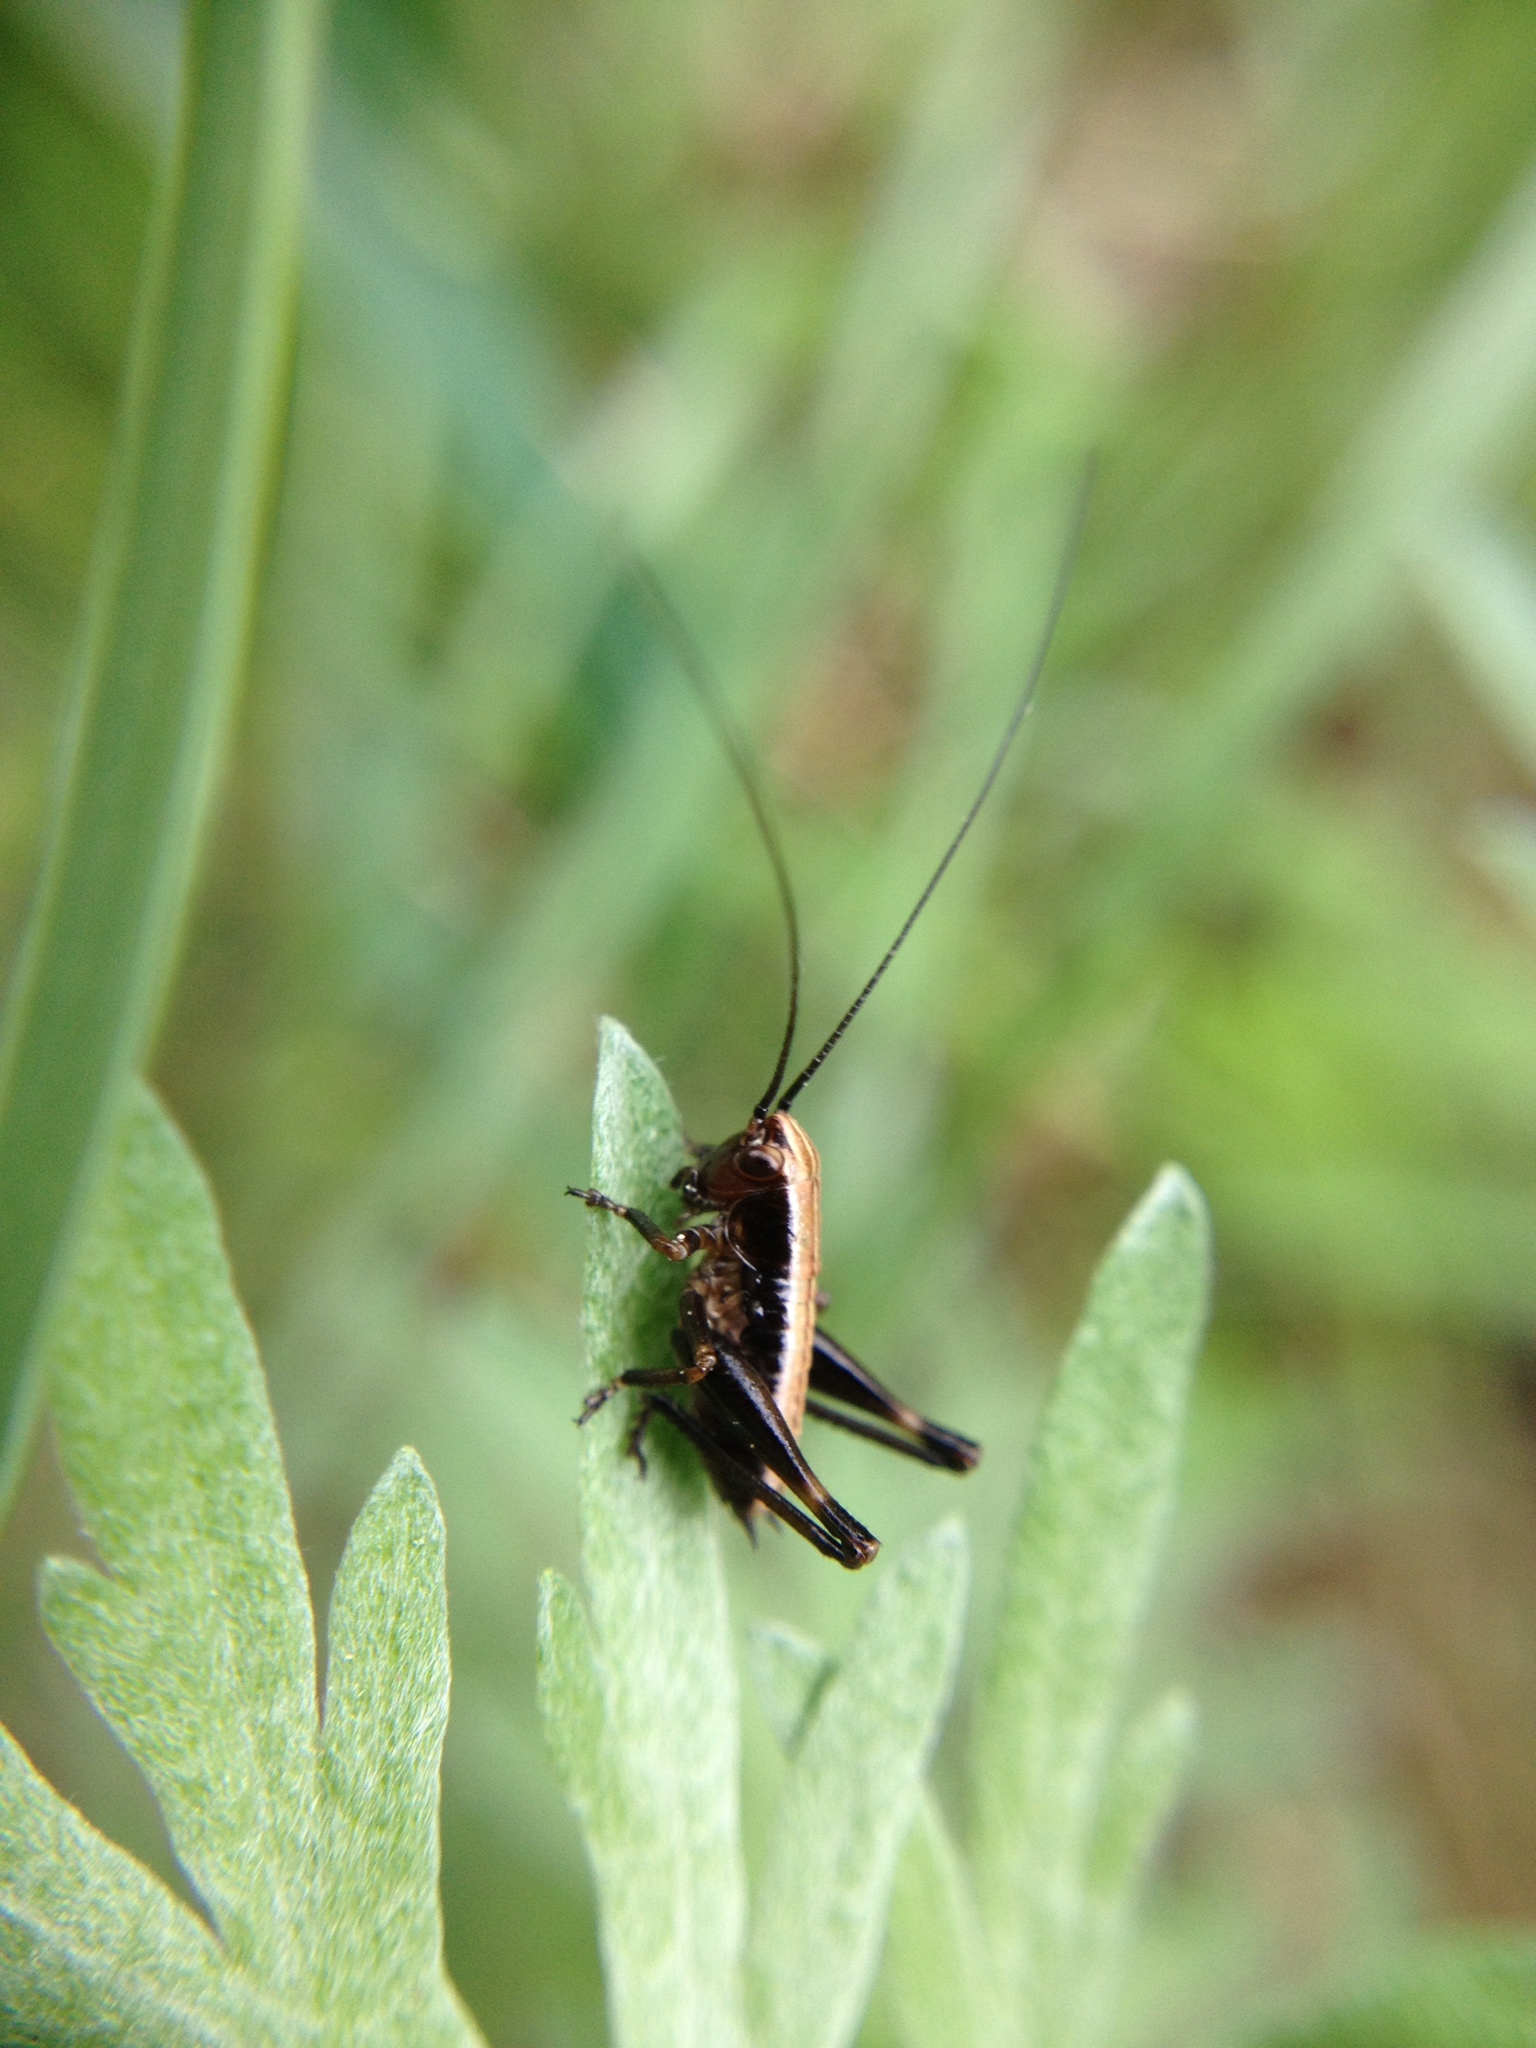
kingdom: Animalia
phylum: Arthropoda
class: Insecta
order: Orthoptera
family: Tettigoniidae
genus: Pholidoptera
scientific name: Pholidoptera griseoaptera
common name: Dark bush-cricket
